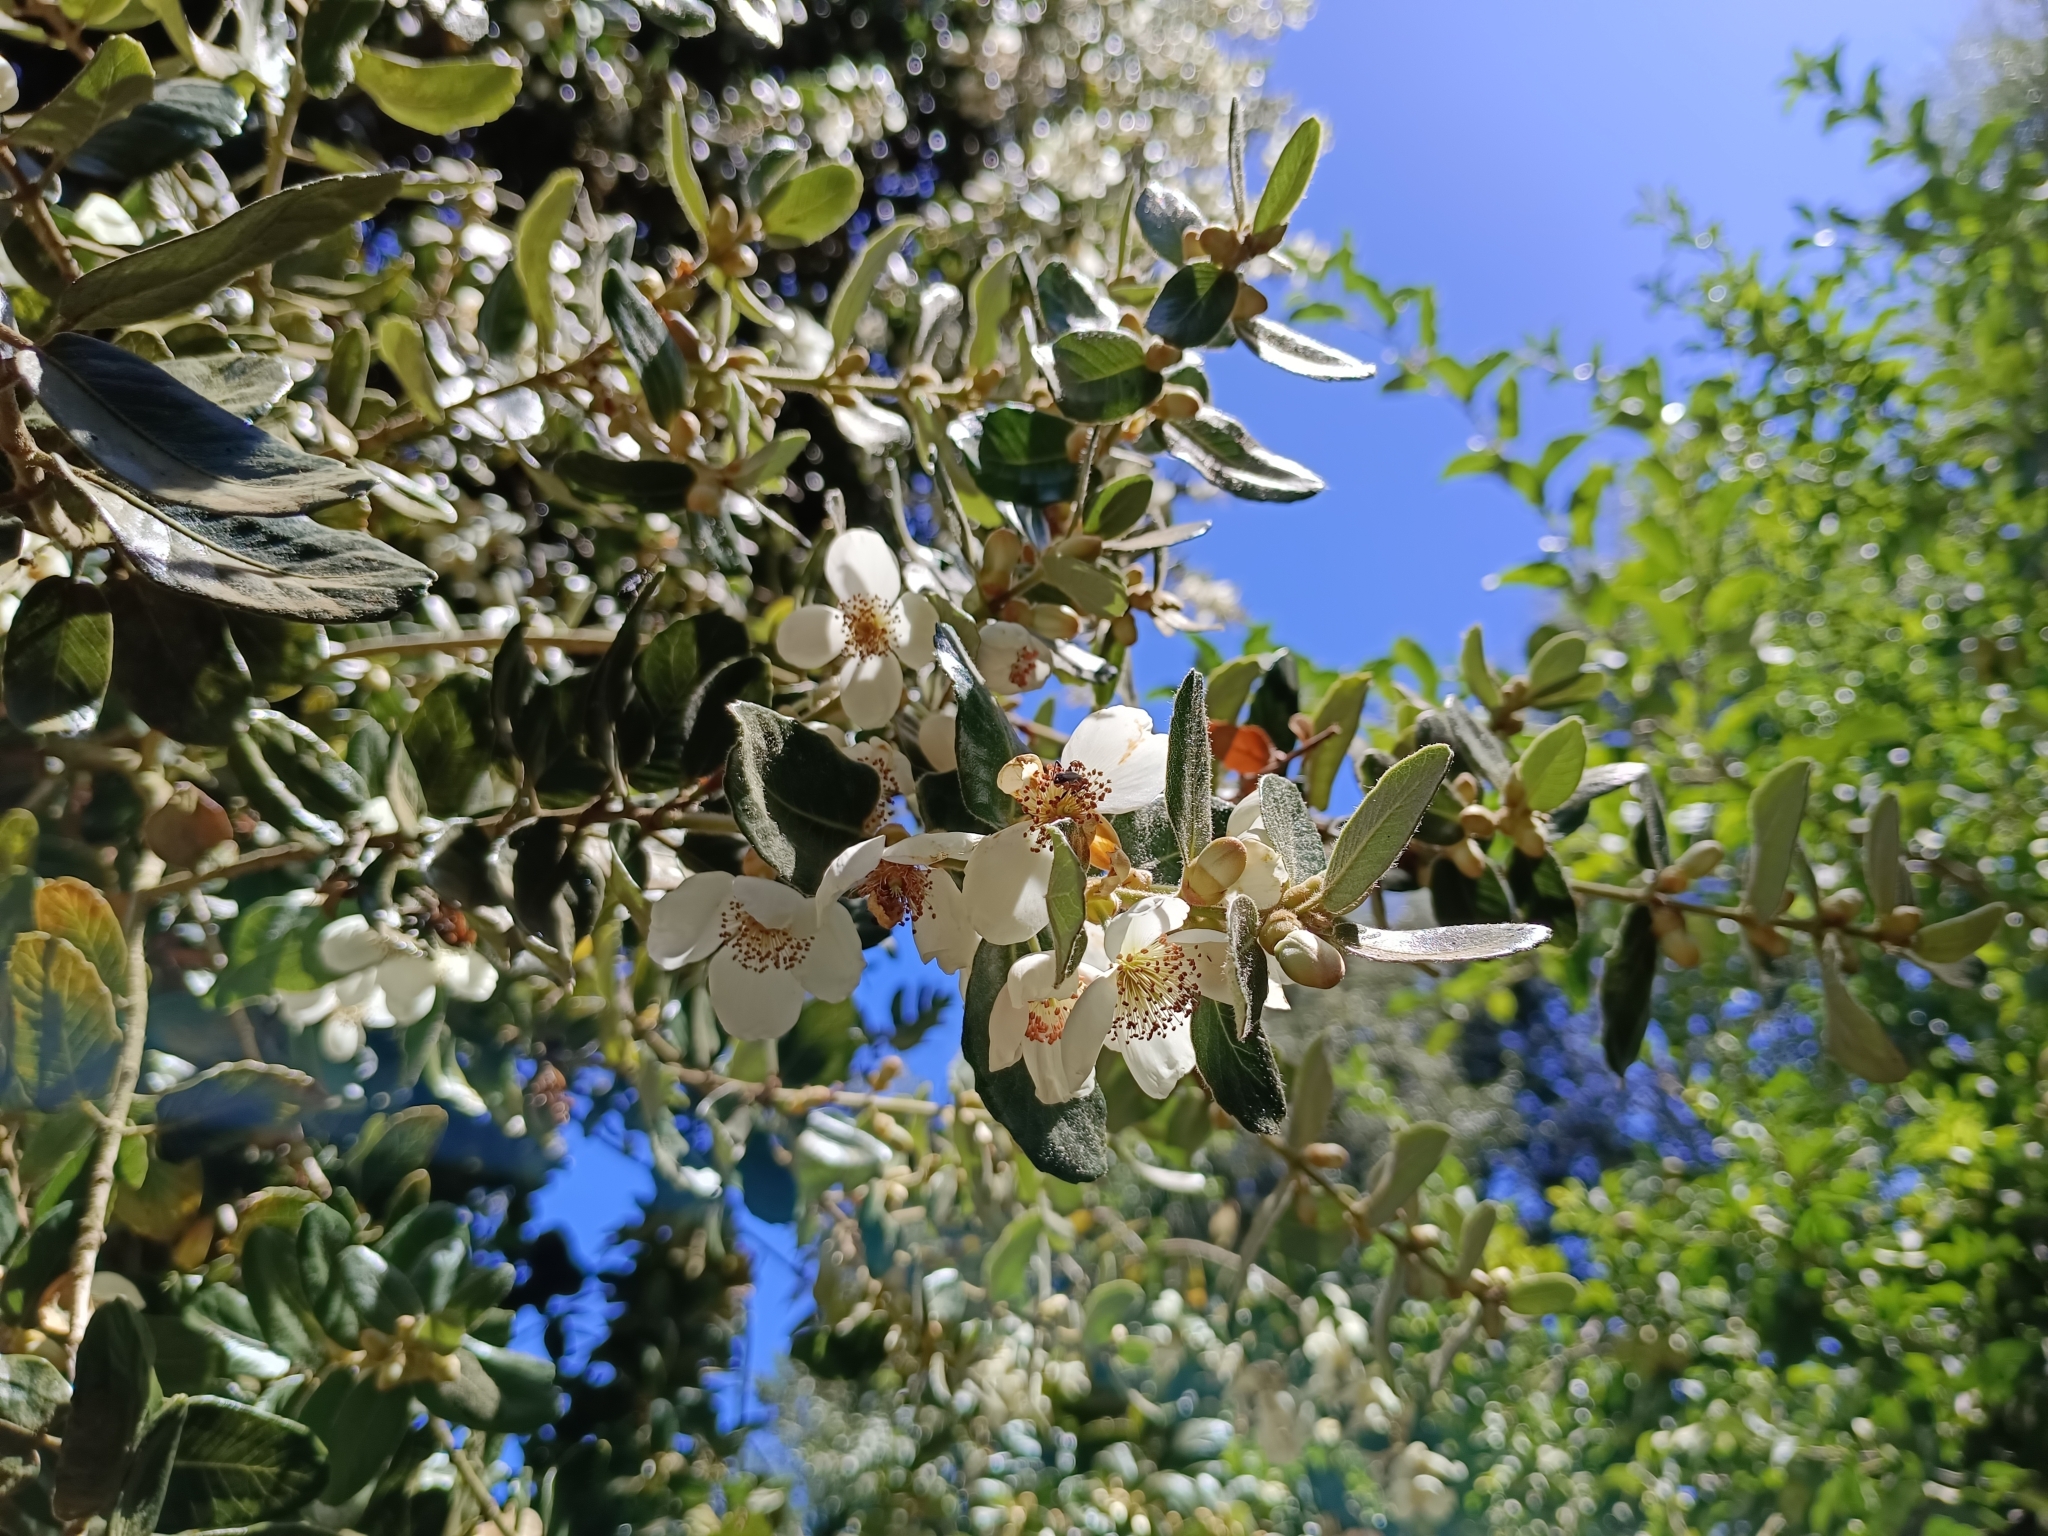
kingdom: Plantae
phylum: Tracheophyta
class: Magnoliopsida
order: Oxalidales
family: Cunoniaceae
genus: Eucryphia
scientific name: Eucryphia cordifolia
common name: Ulmo
